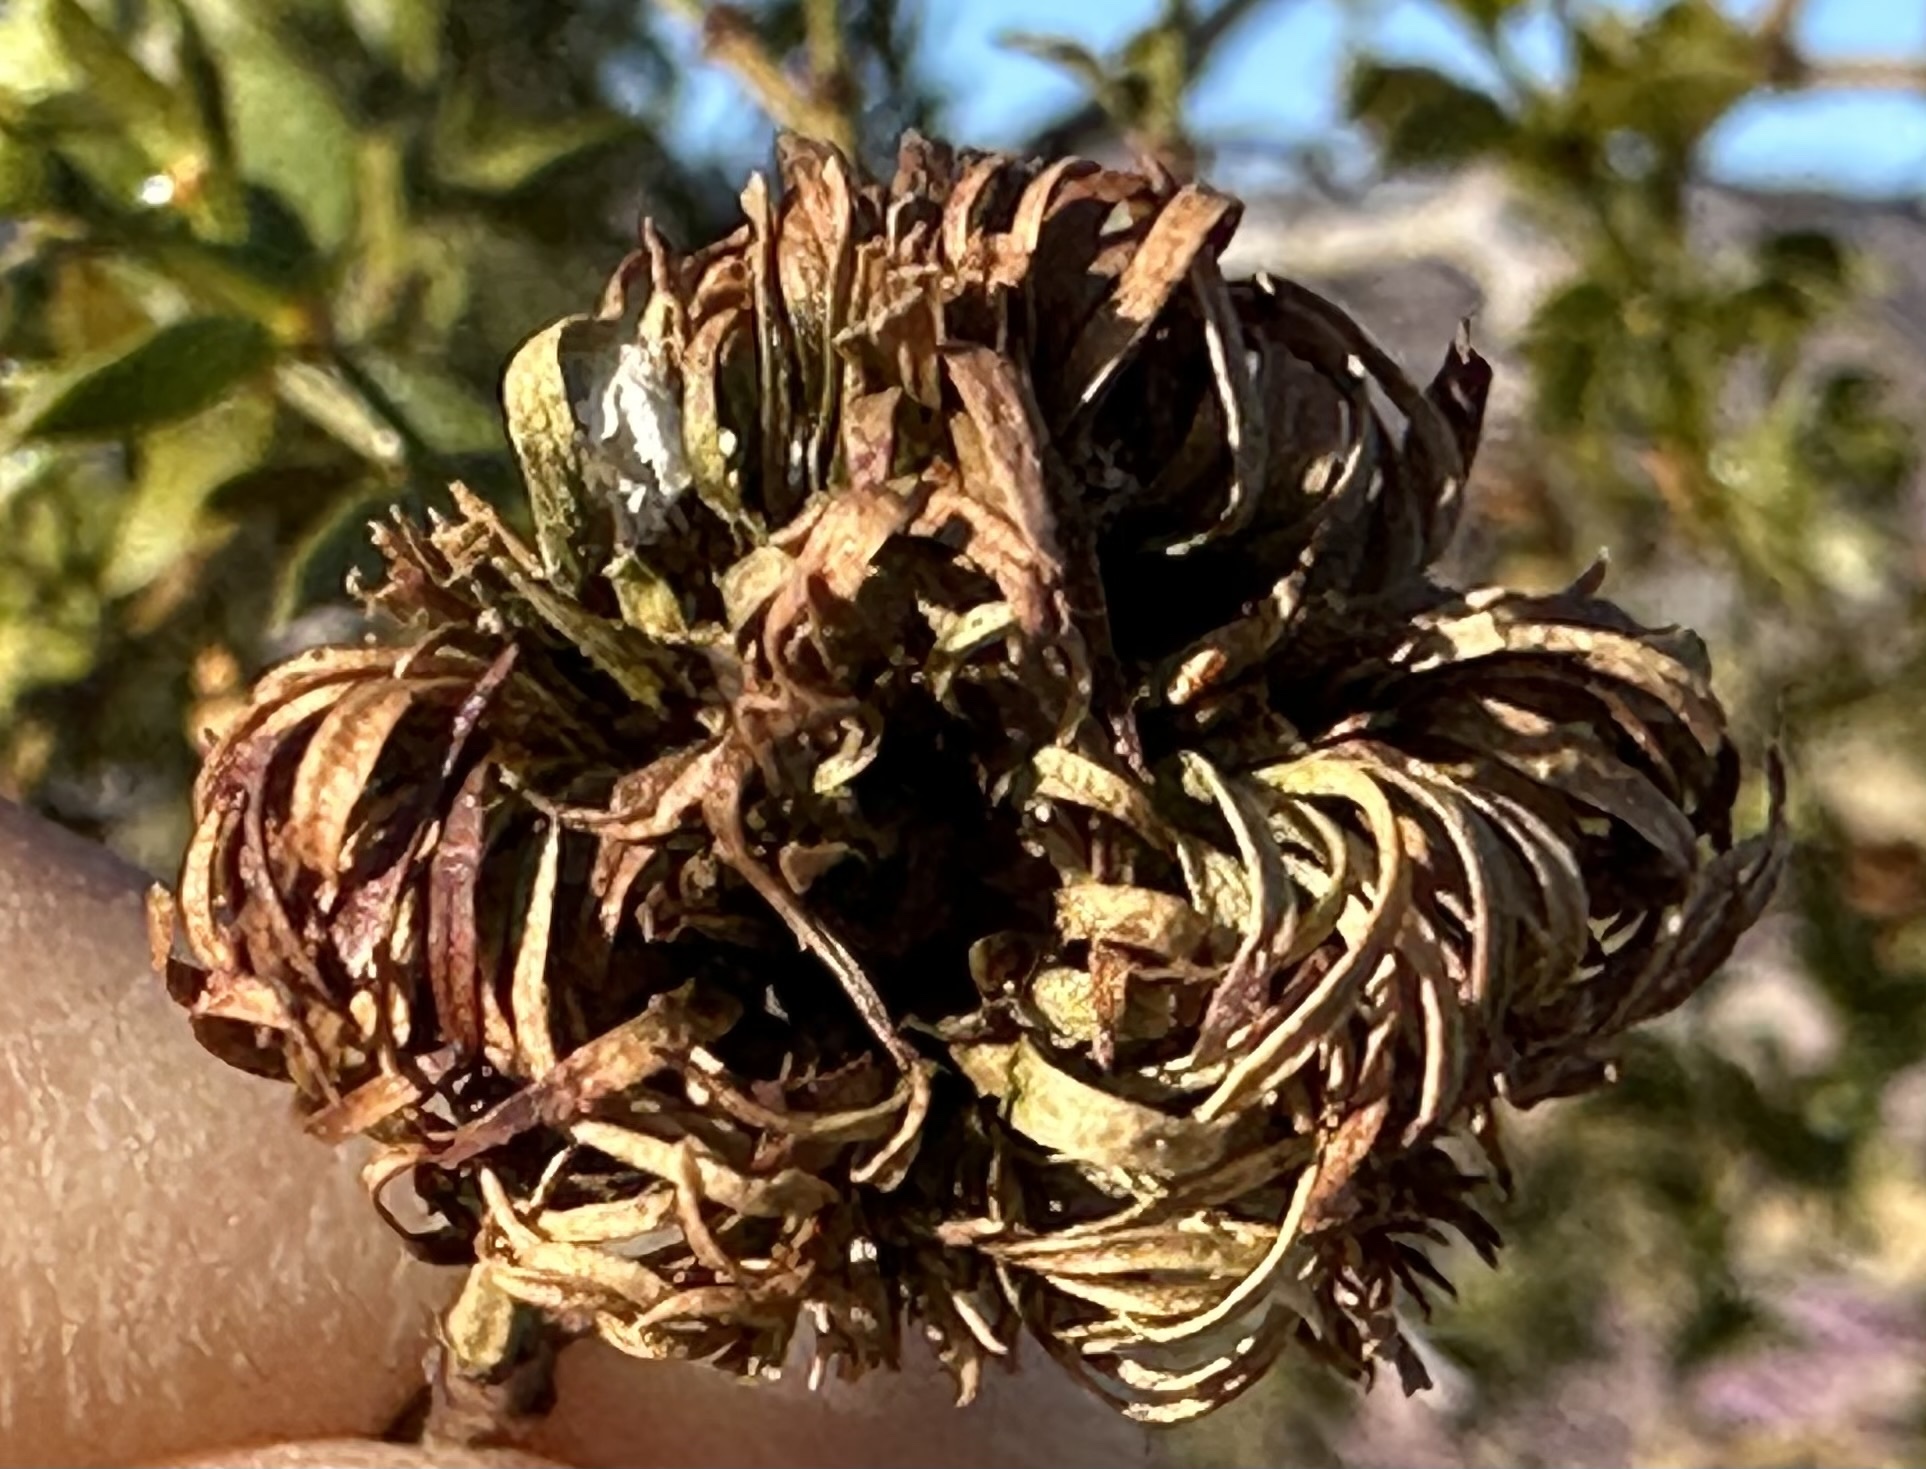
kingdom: Animalia
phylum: Arthropoda
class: Insecta
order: Diptera
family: Cecidomyiidae
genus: Asphondylia
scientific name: Asphondylia auripila
